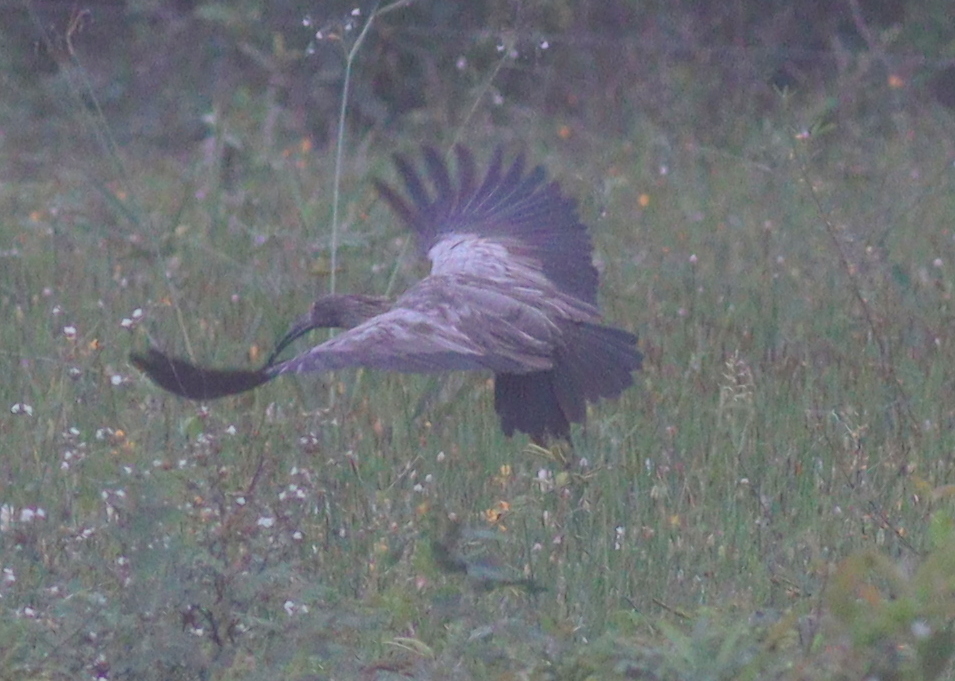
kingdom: Animalia
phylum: Chordata
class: Aves
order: Pelecaniformes
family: Threskiornithidae
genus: Theristicus
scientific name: Theristicus caerulescens
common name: Plumbeous ibis
